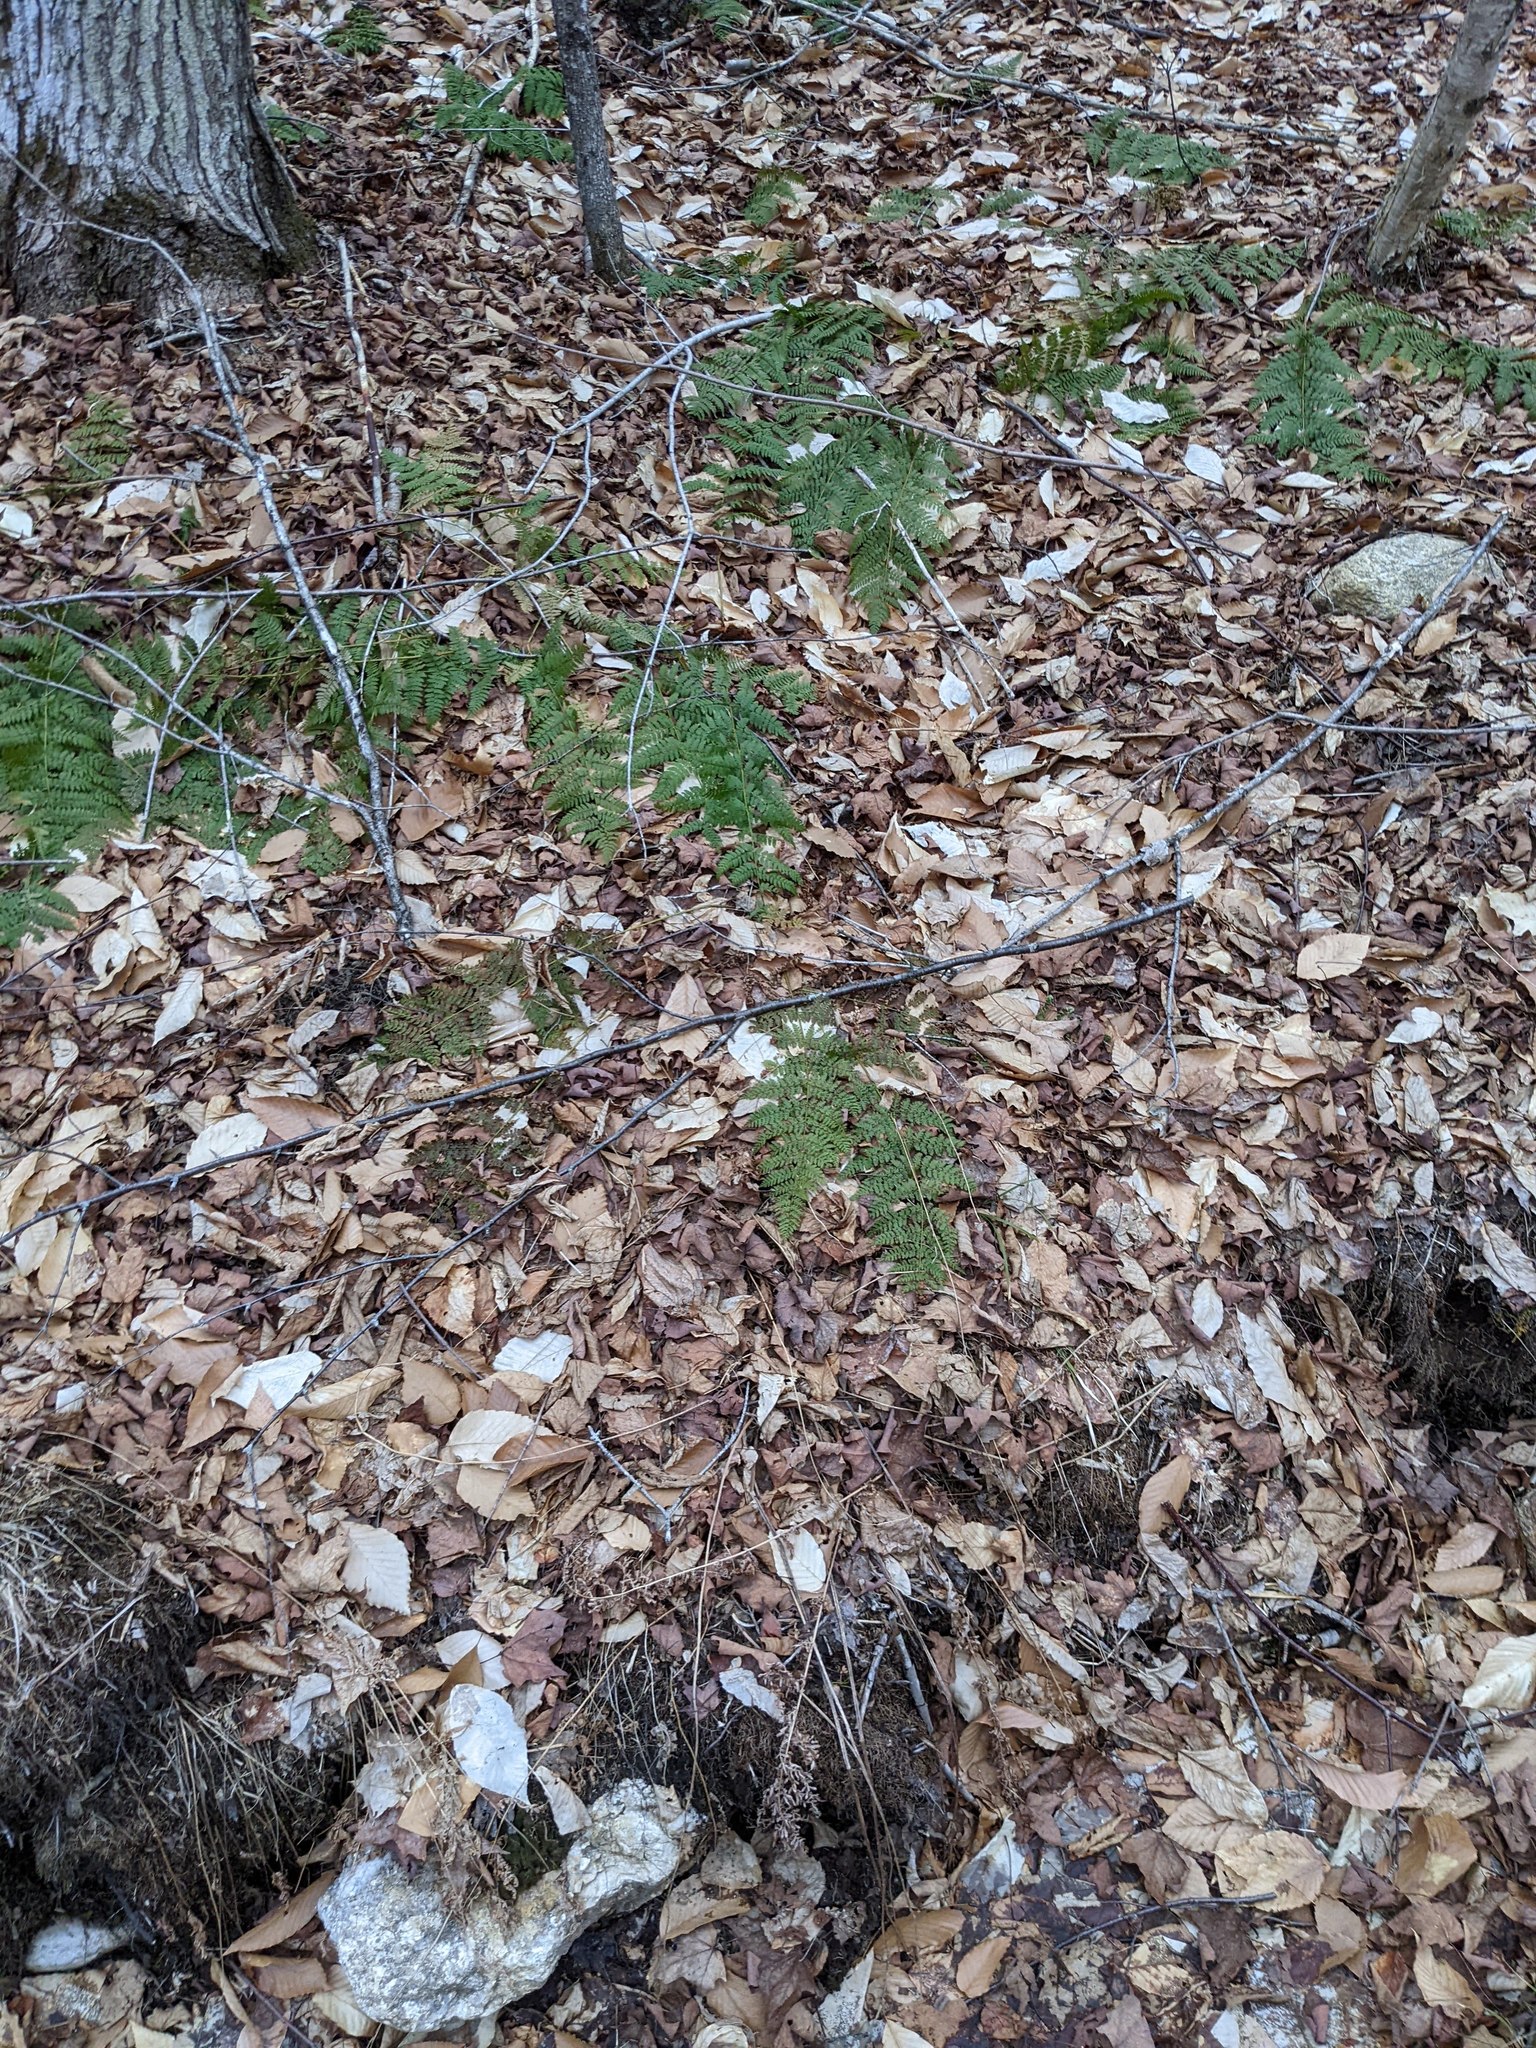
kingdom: Plantae
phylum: Tracheophyta
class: Polypodiopsida
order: Polypodiales
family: Dryopteridaceae
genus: Dryopteris
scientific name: Dryopteris intermedia
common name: Evergreen wood fern
